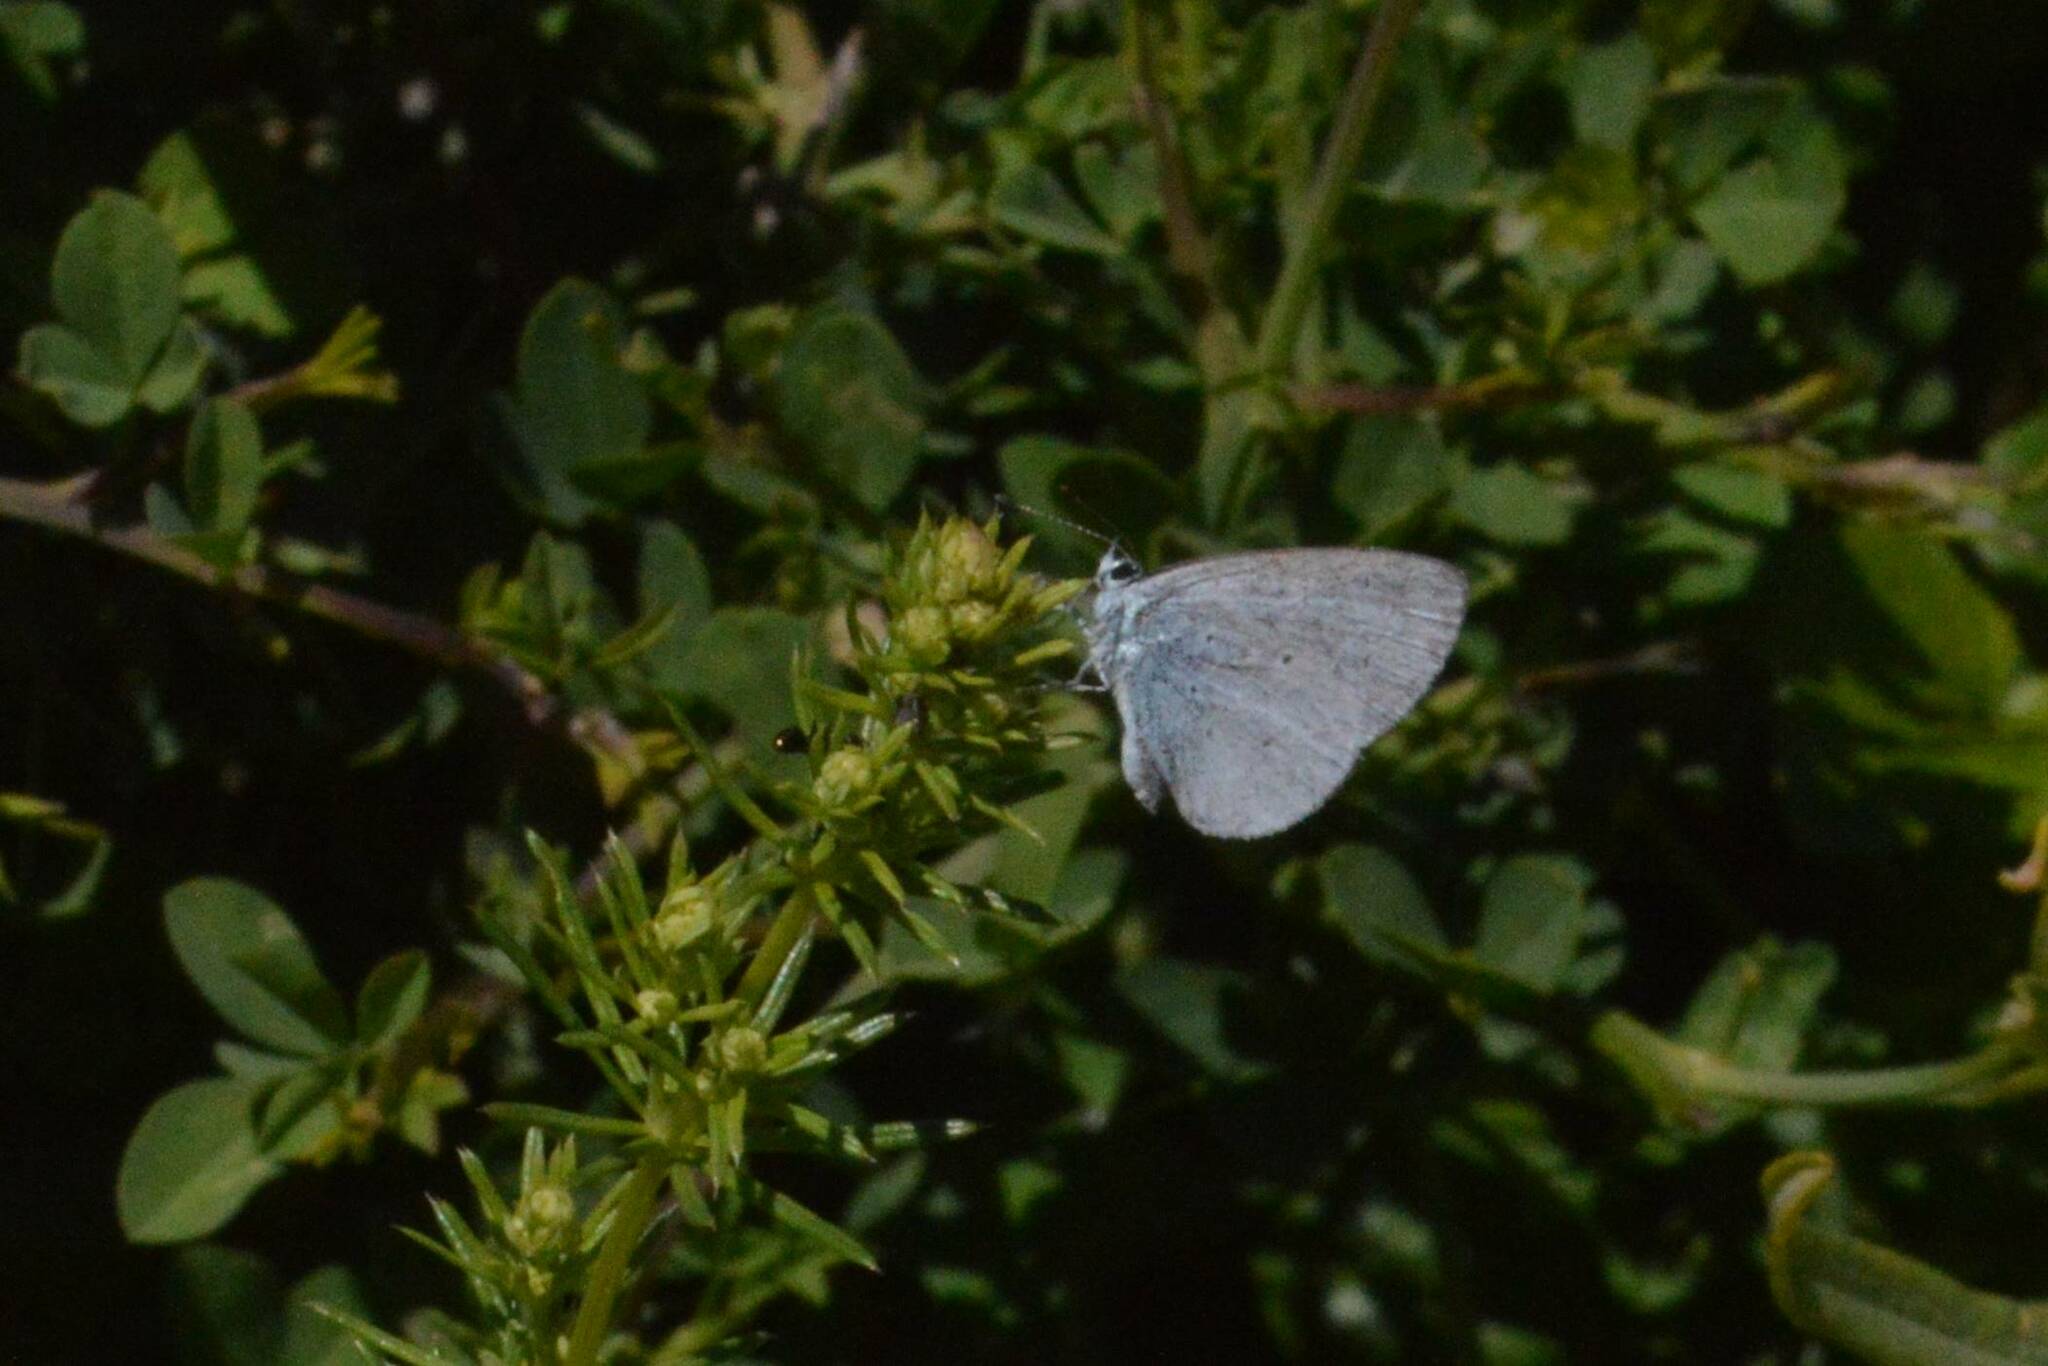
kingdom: Animalia
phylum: Arthropoda
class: Insecta
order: Lepidoptera
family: Lycaenidae
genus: Celastrina
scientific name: Celastrina argiolus
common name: Holly blue
